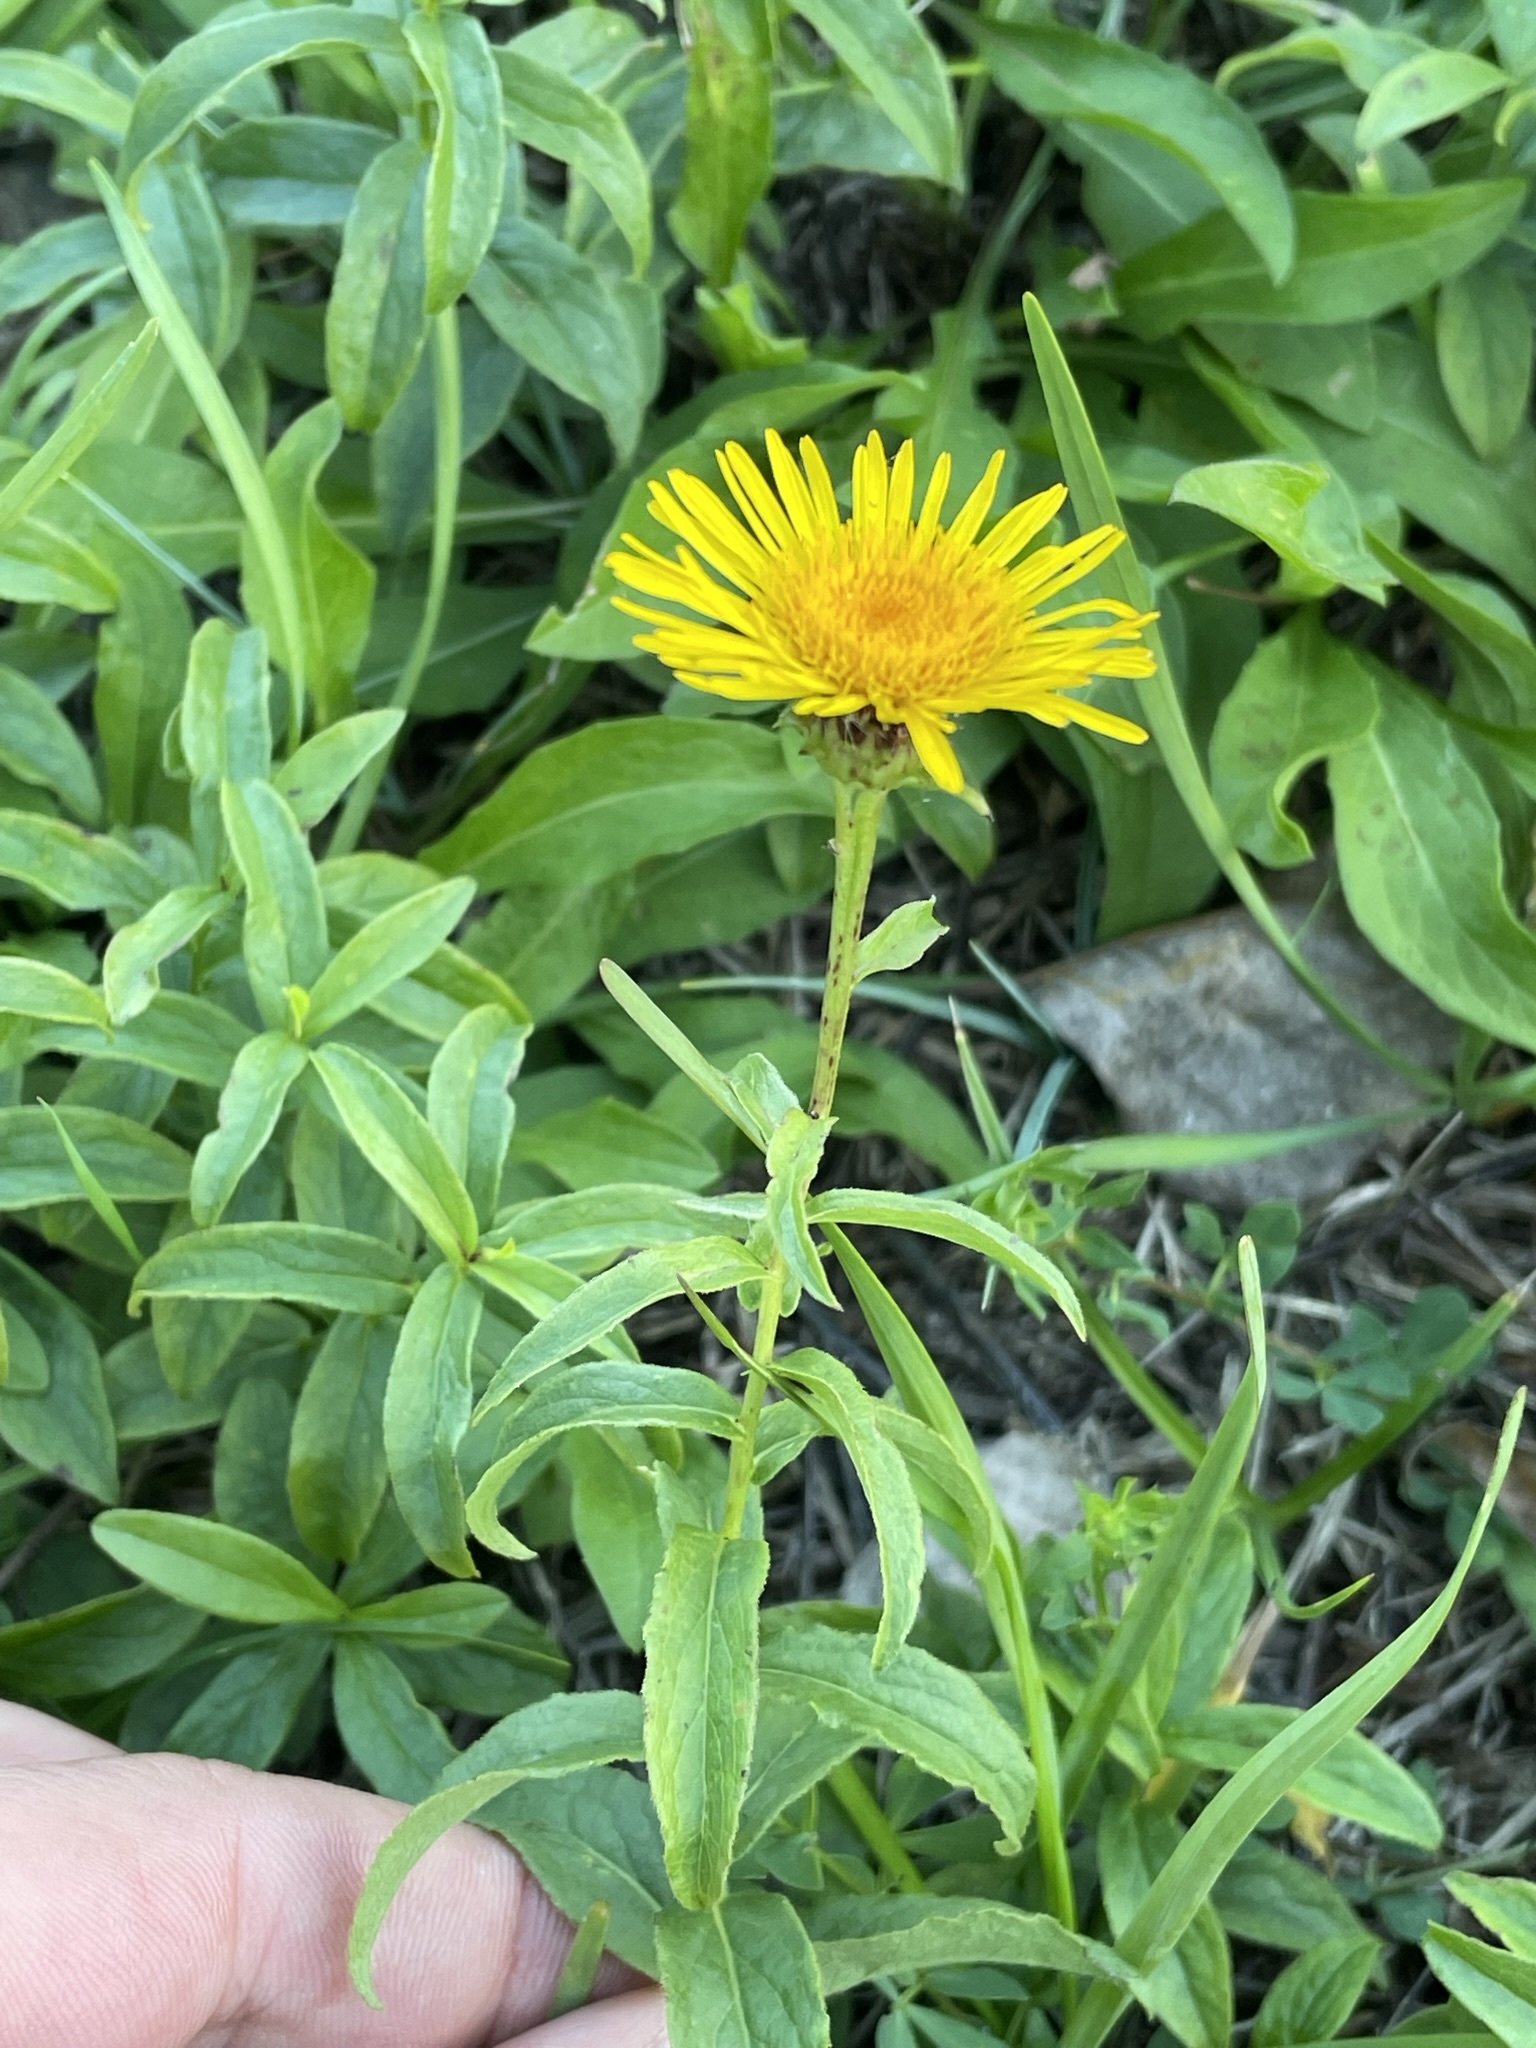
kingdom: Plantae
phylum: Tracheophyta
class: Magnoliopsida
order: Asterales
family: Asteraceae
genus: Pentanema
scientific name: Pentanema salicinum
